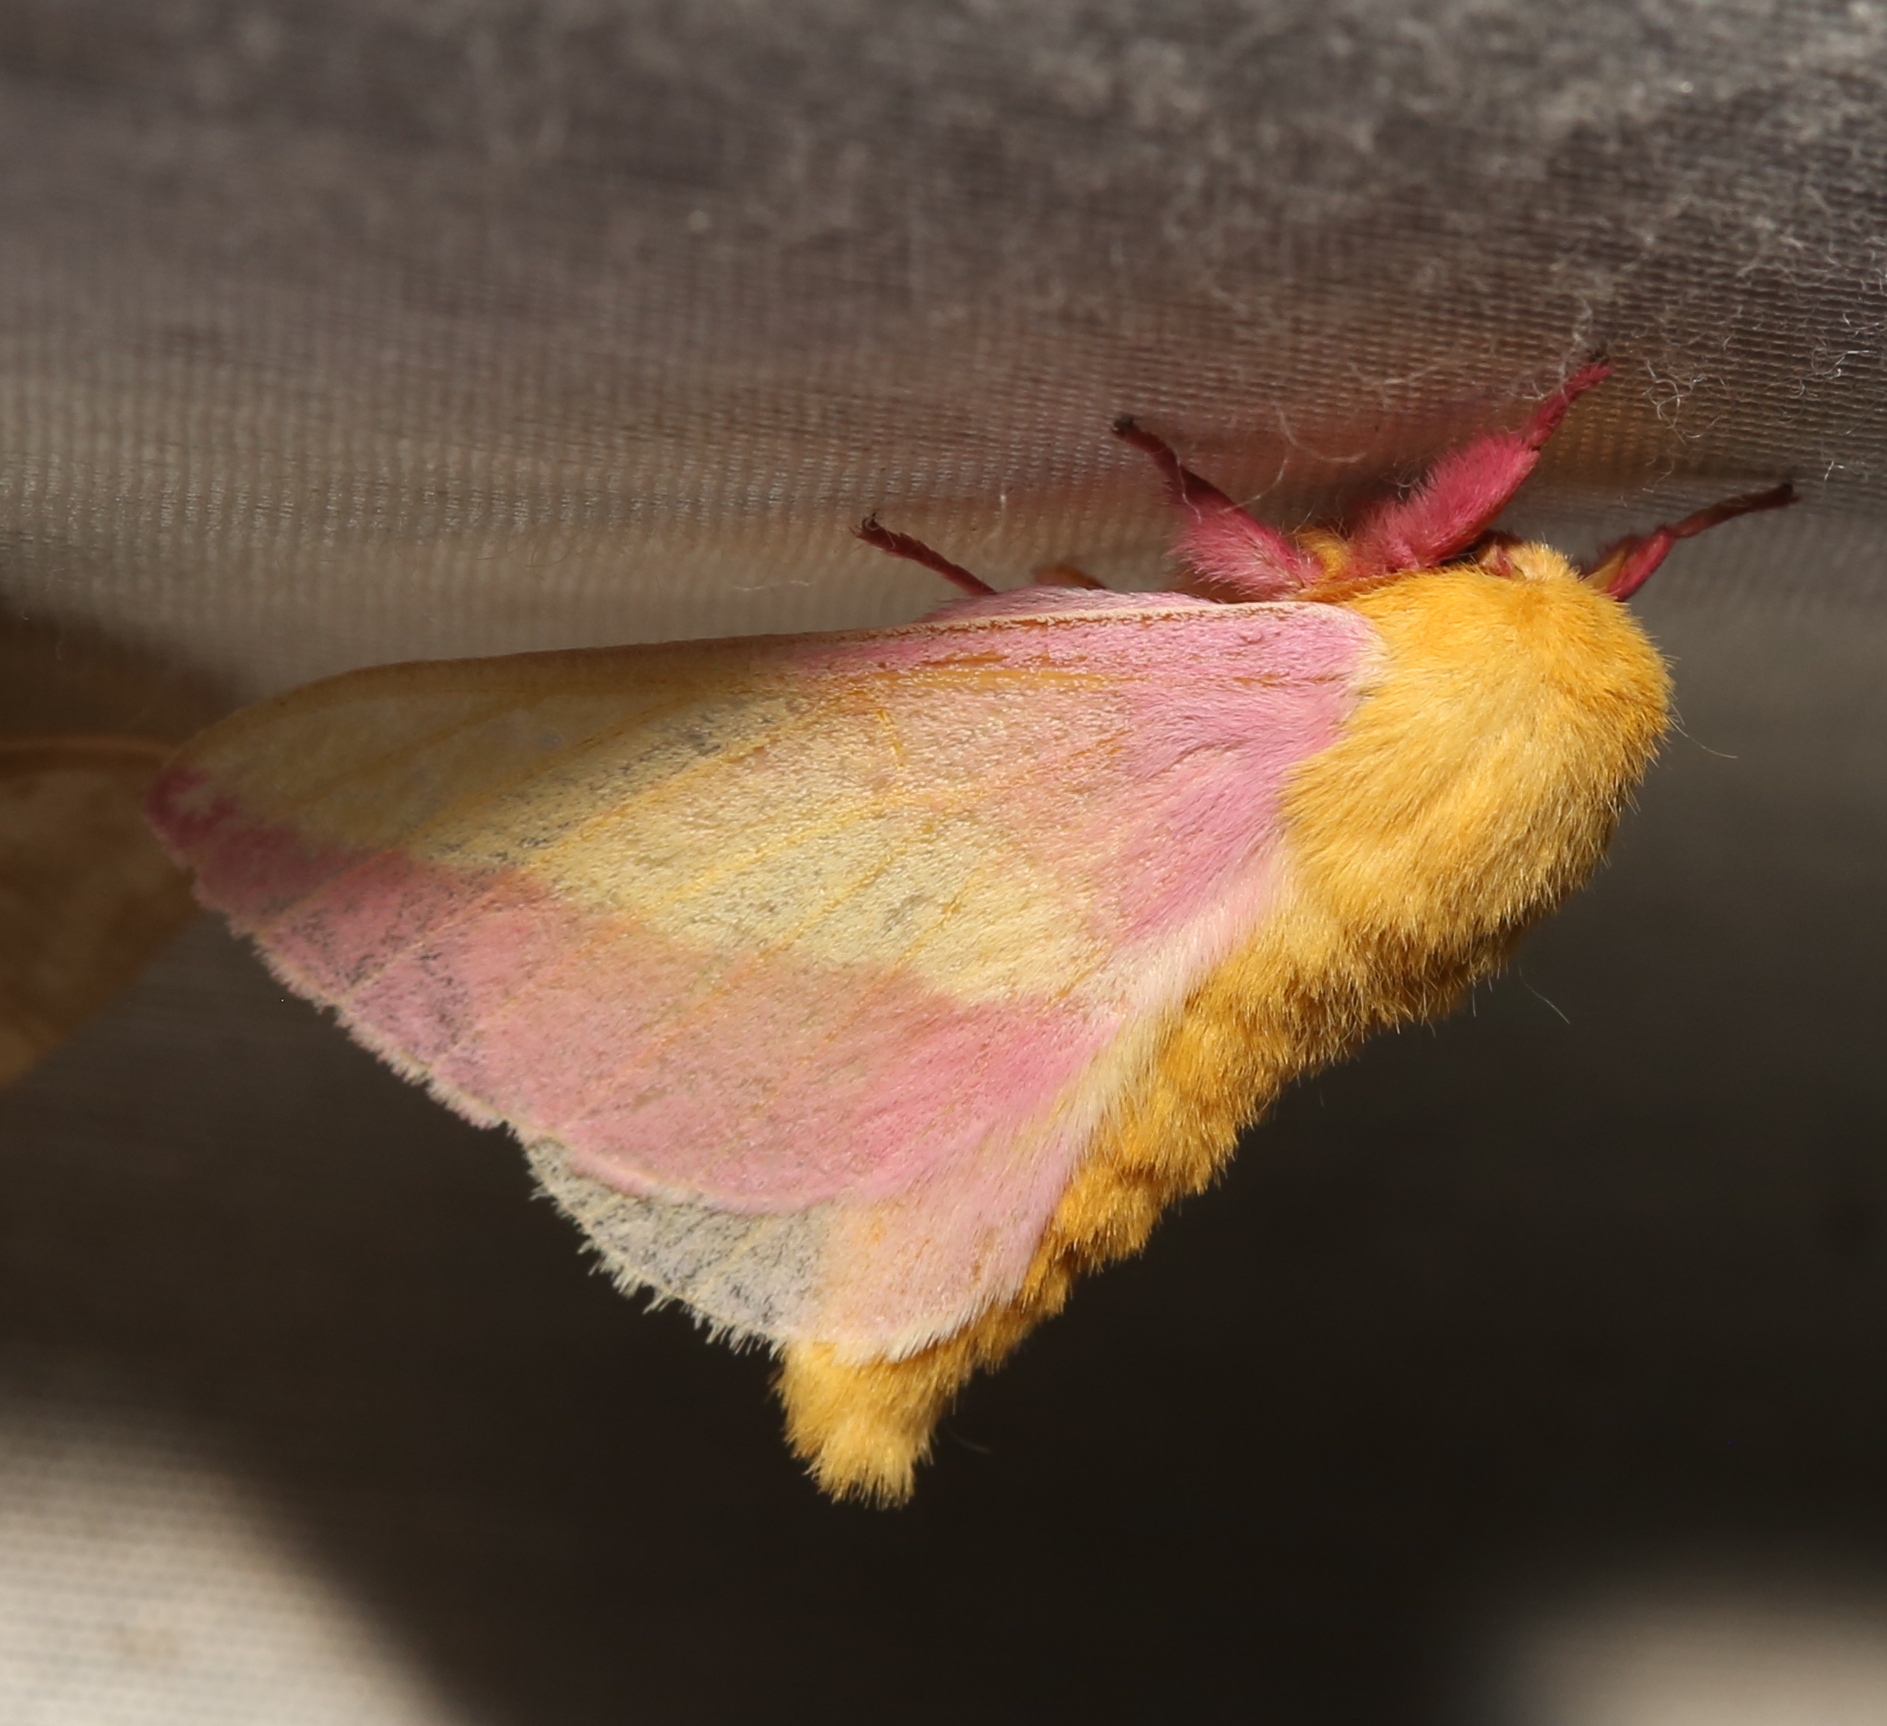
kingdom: Animalia
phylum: Arthropoda
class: Insecta
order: Lepidoptera
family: Saturniidae
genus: Dryocampa
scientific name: Dryocampa rubicunda
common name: Rosy maple moth
